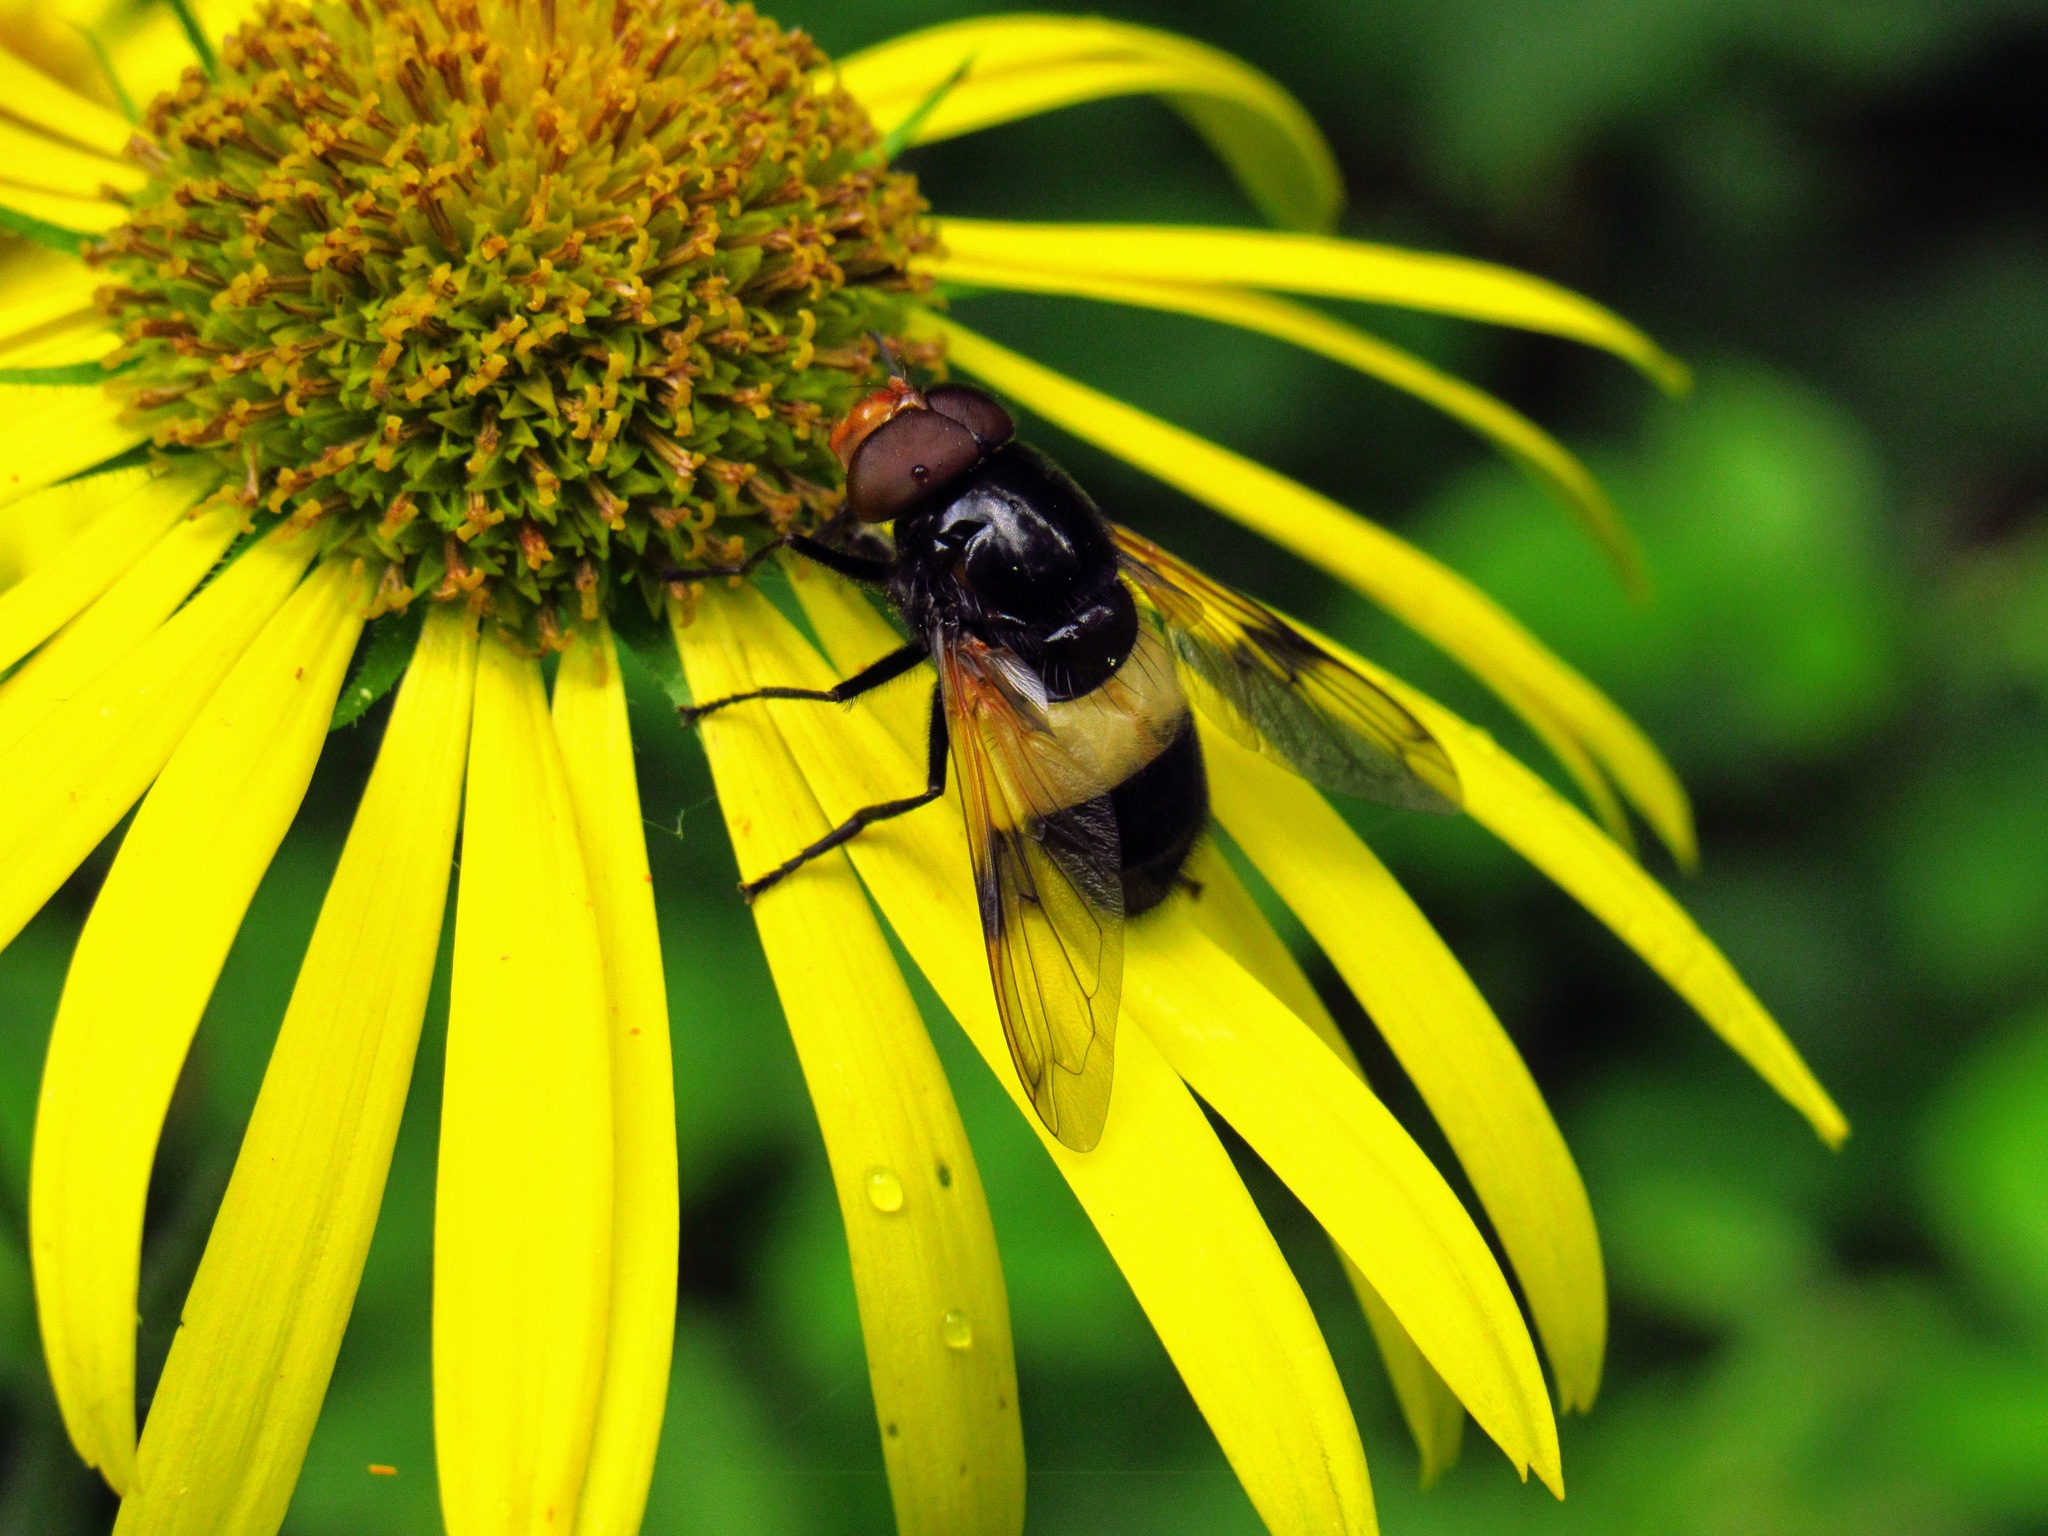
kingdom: Animalia
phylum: Arthropoda
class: Insecta
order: Diptera
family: Syrphidae
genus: Volucella
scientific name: Volucella pellucens
